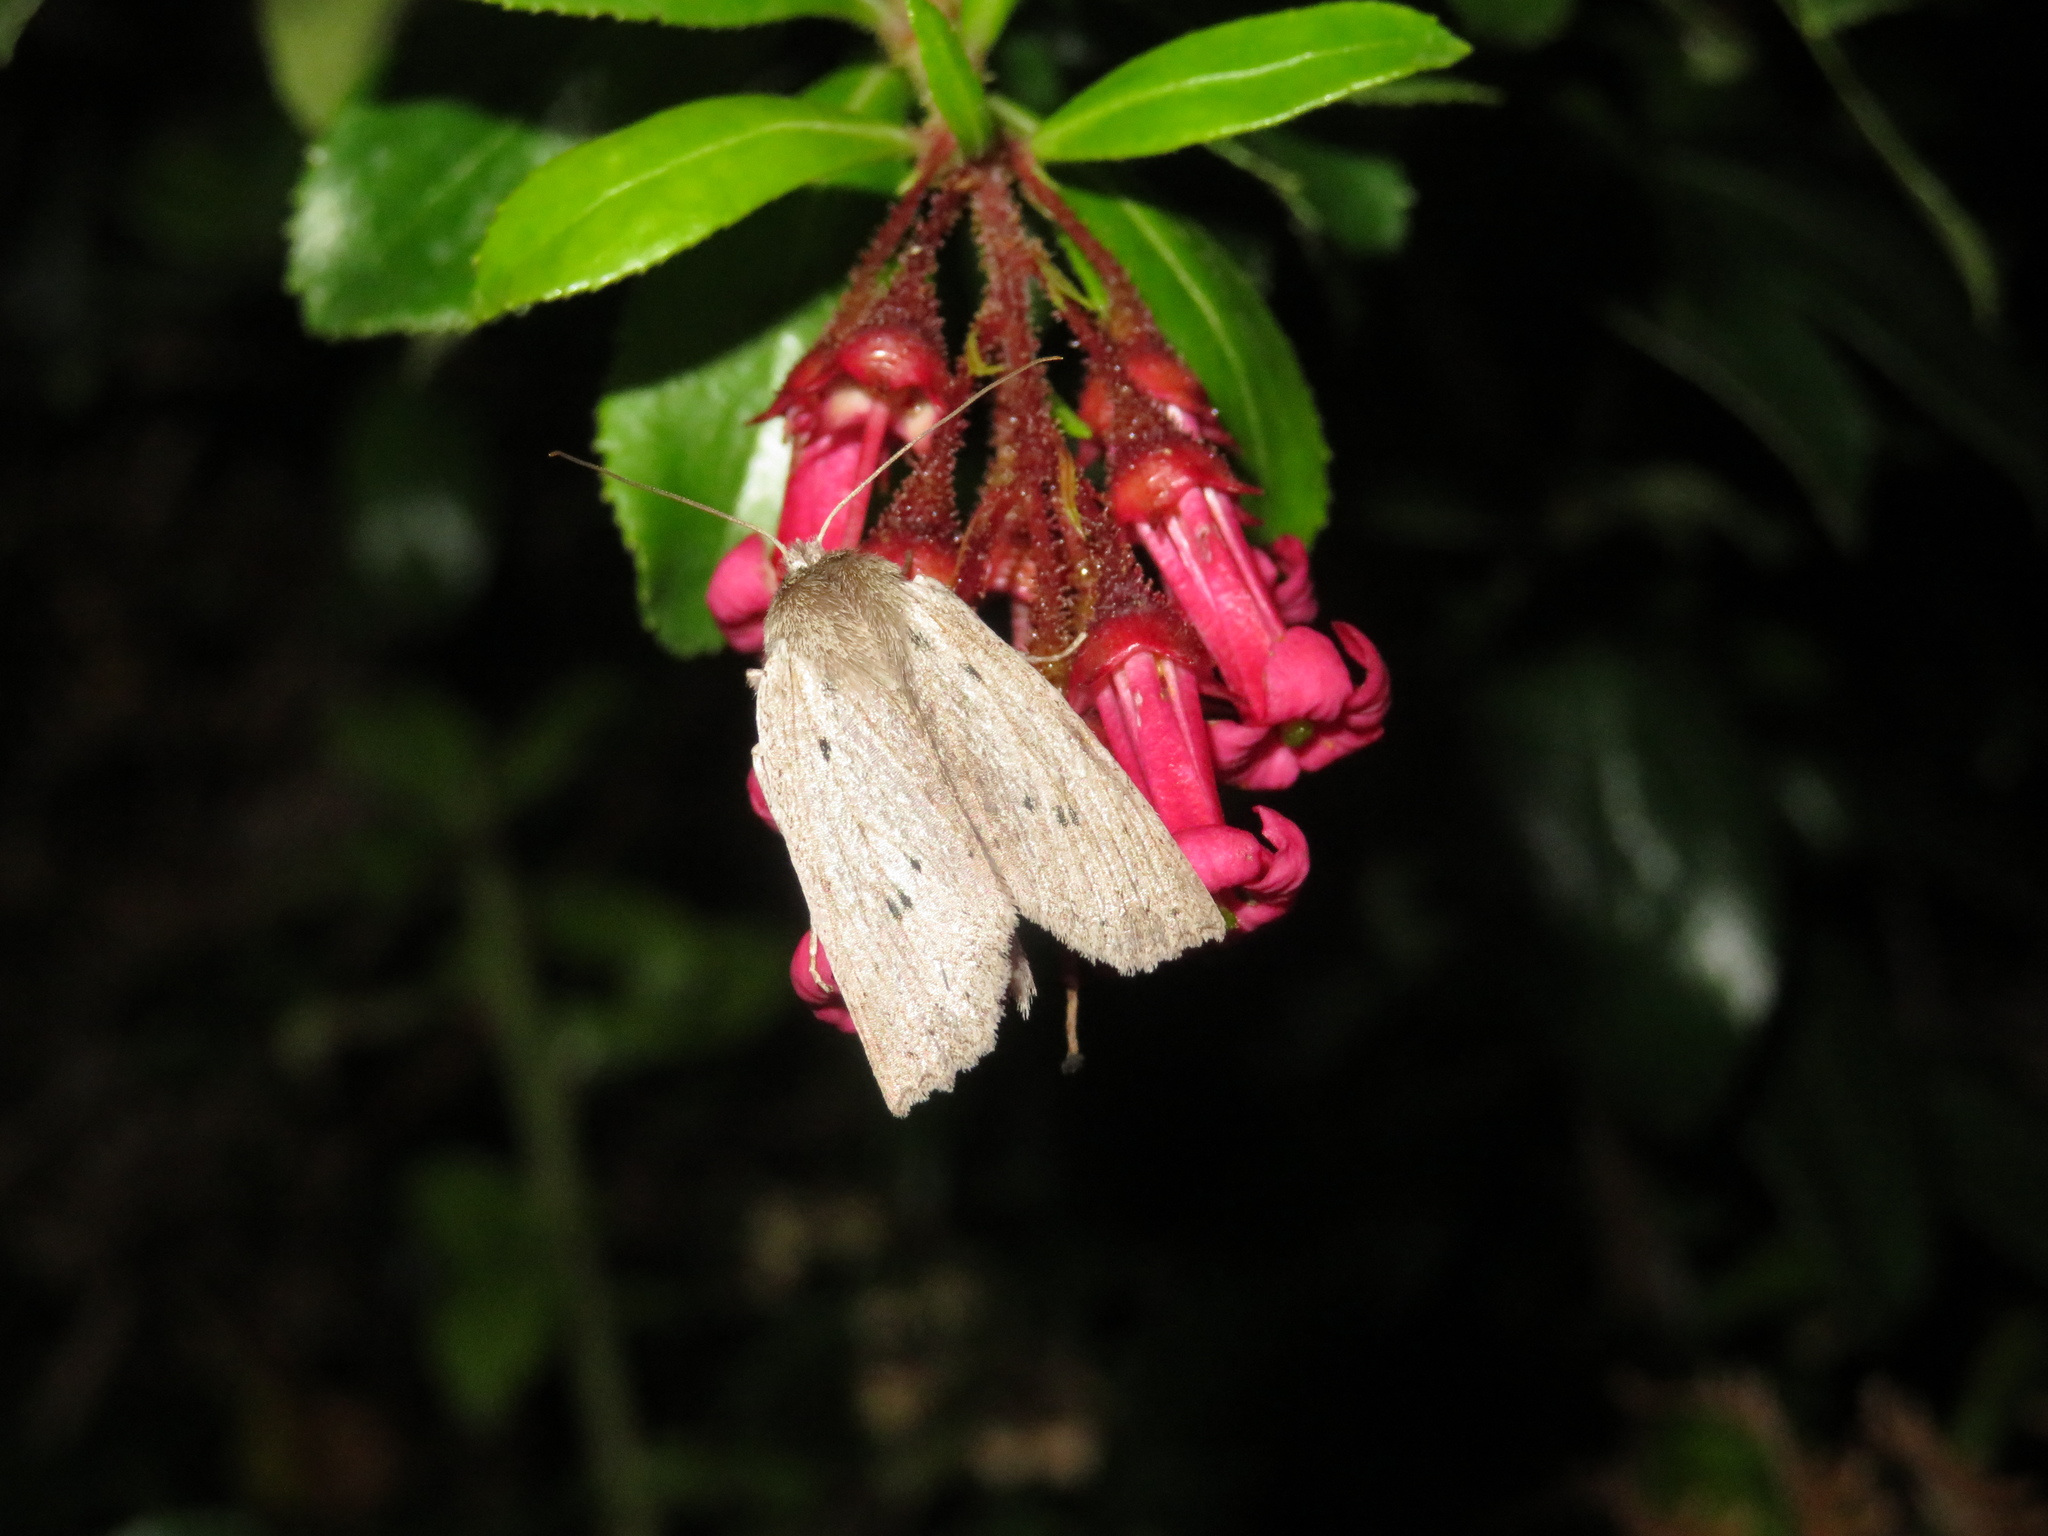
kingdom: Animalia
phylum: Arthropoda
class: Insecta
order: Lepidoptera
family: Geometridae
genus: Declana
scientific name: Declana leptomera
